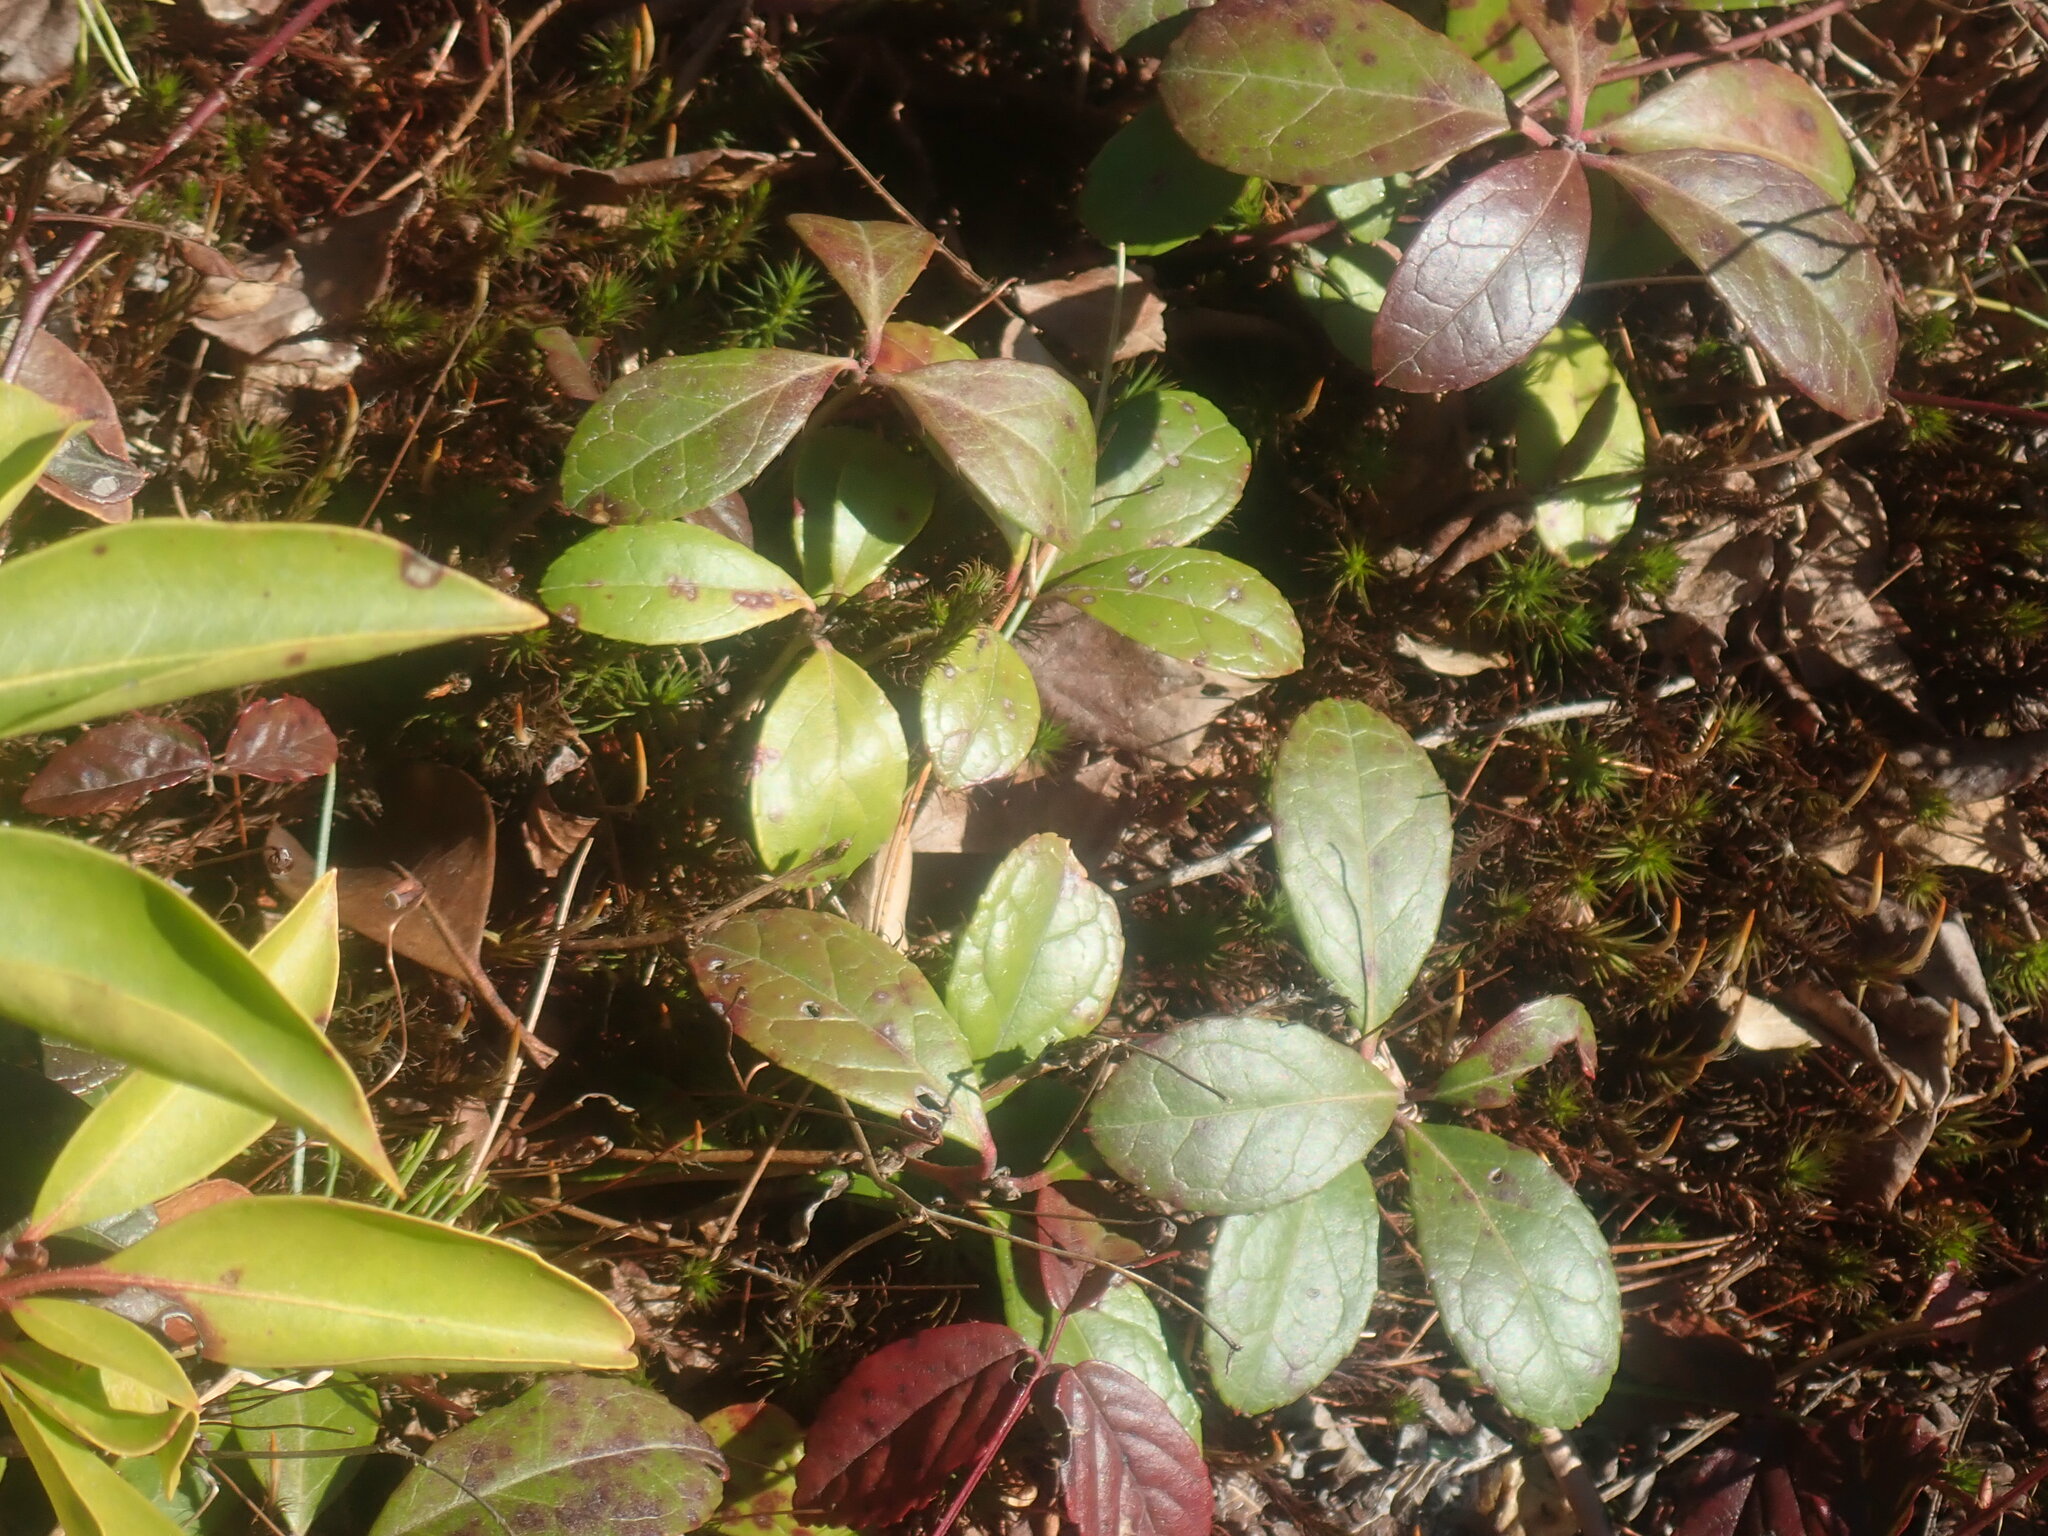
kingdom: Plantae
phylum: Tracheophyta
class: Magnoliopsida
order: Ericales
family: Ericaceae
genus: Gaultheria
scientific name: Gaultheria procumbens
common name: Checkerberry
